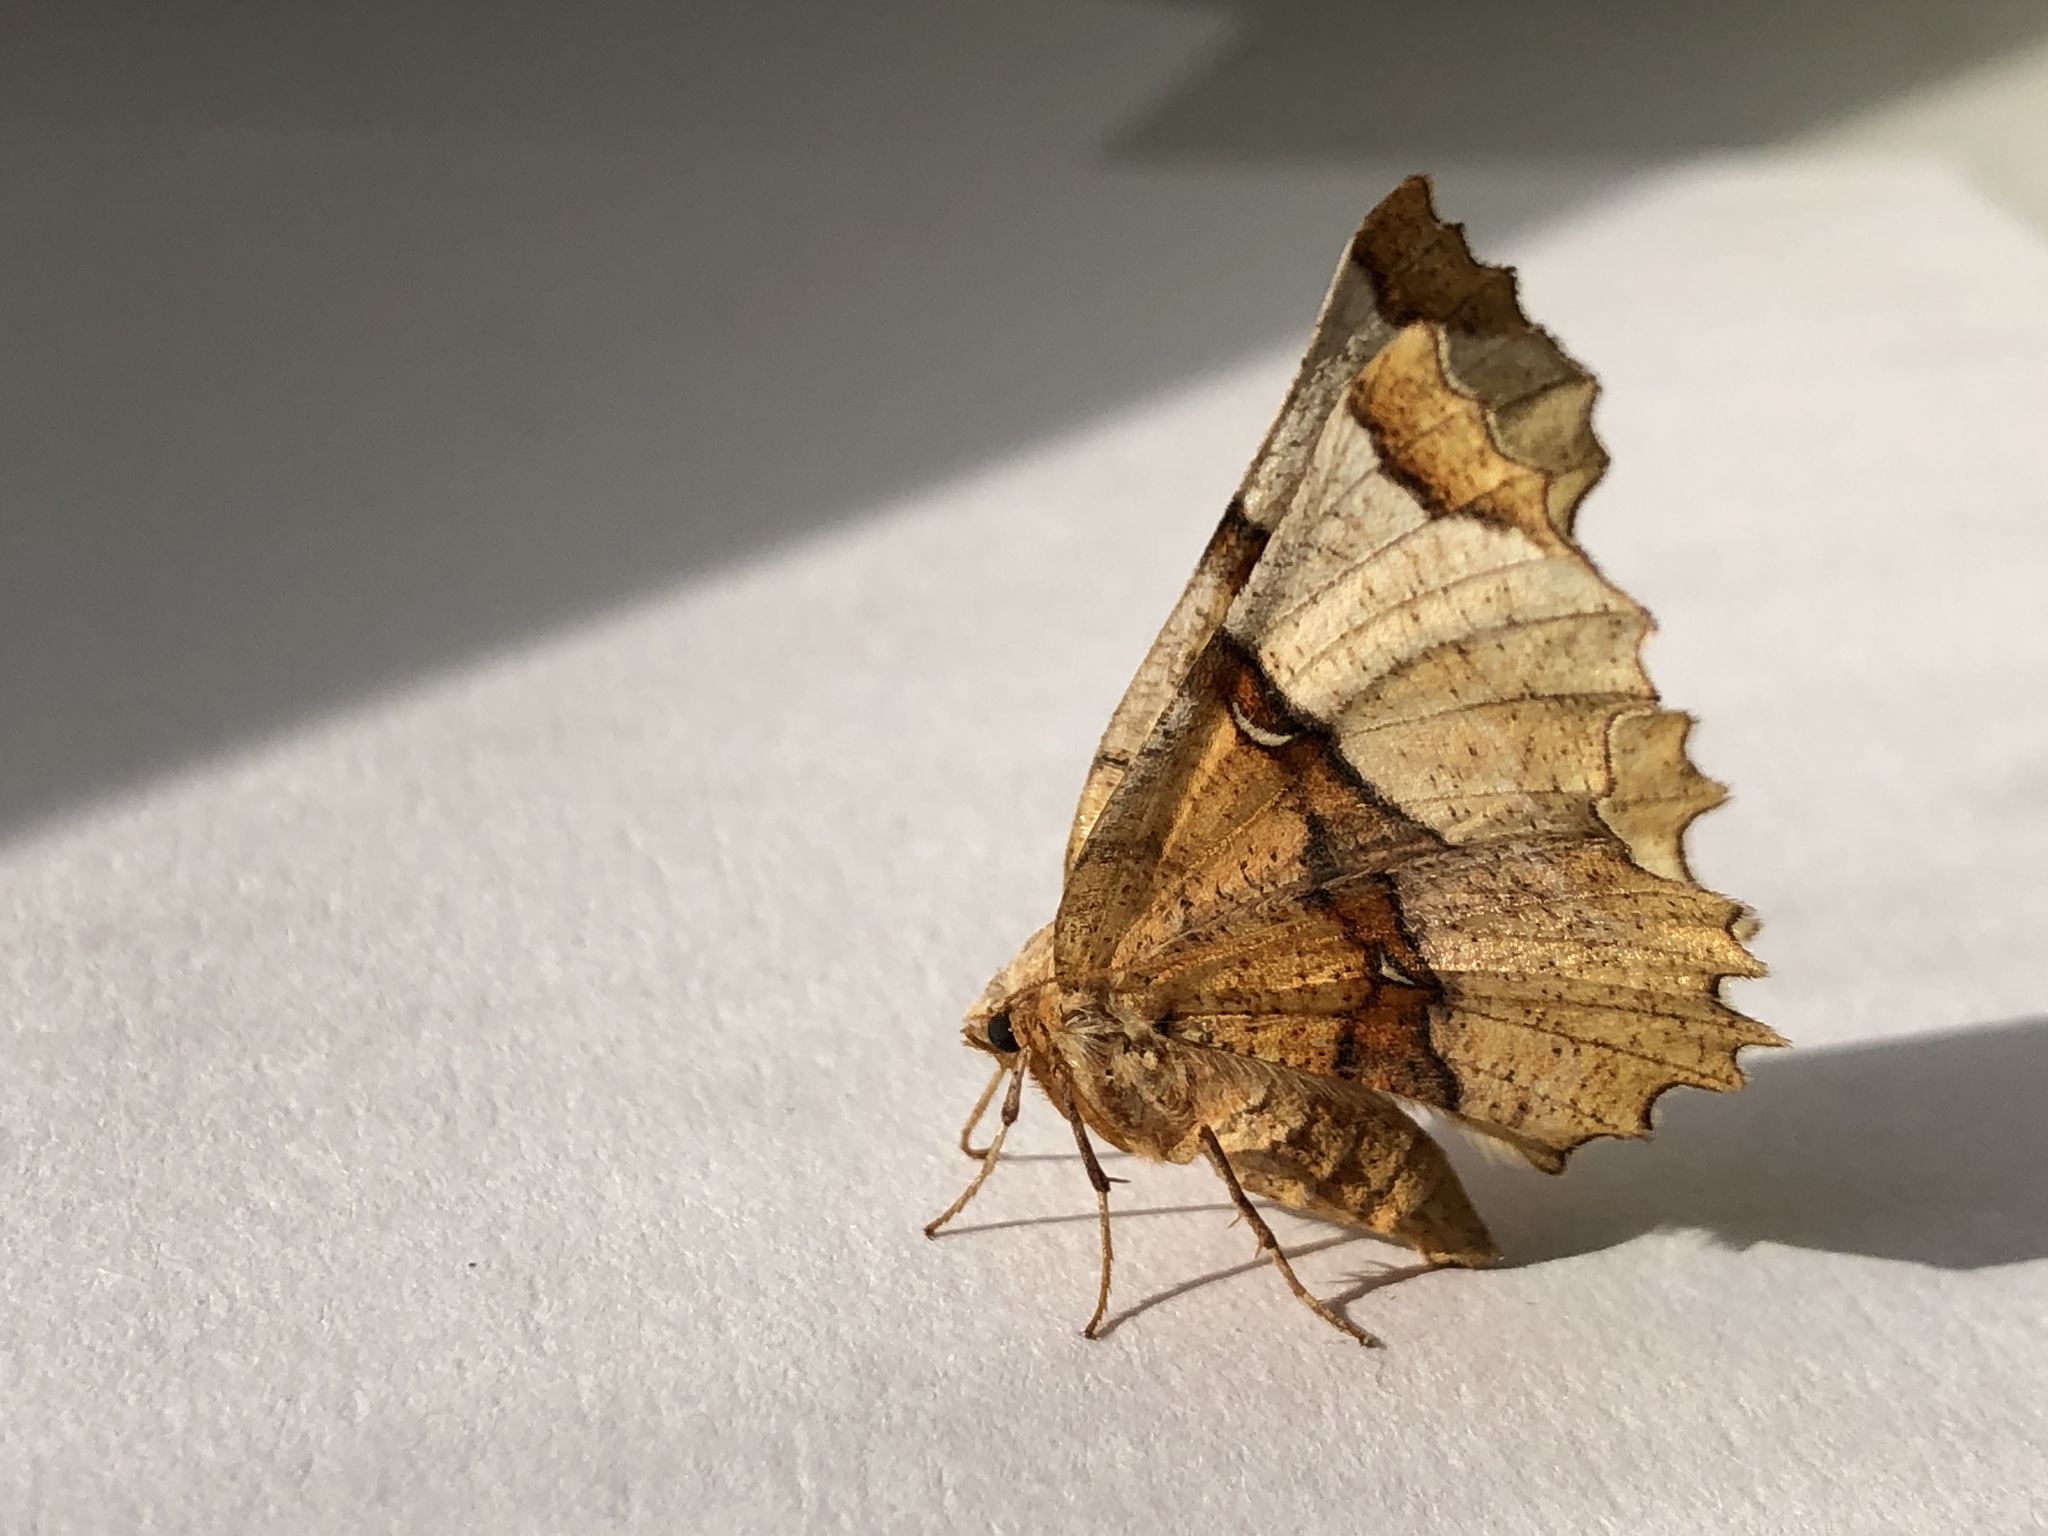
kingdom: Animalia
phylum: Arthropoda
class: Insecta
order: Lepidoptera
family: Geometridae
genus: Selenia
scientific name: Selenia lunularia
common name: Lunar thorn
